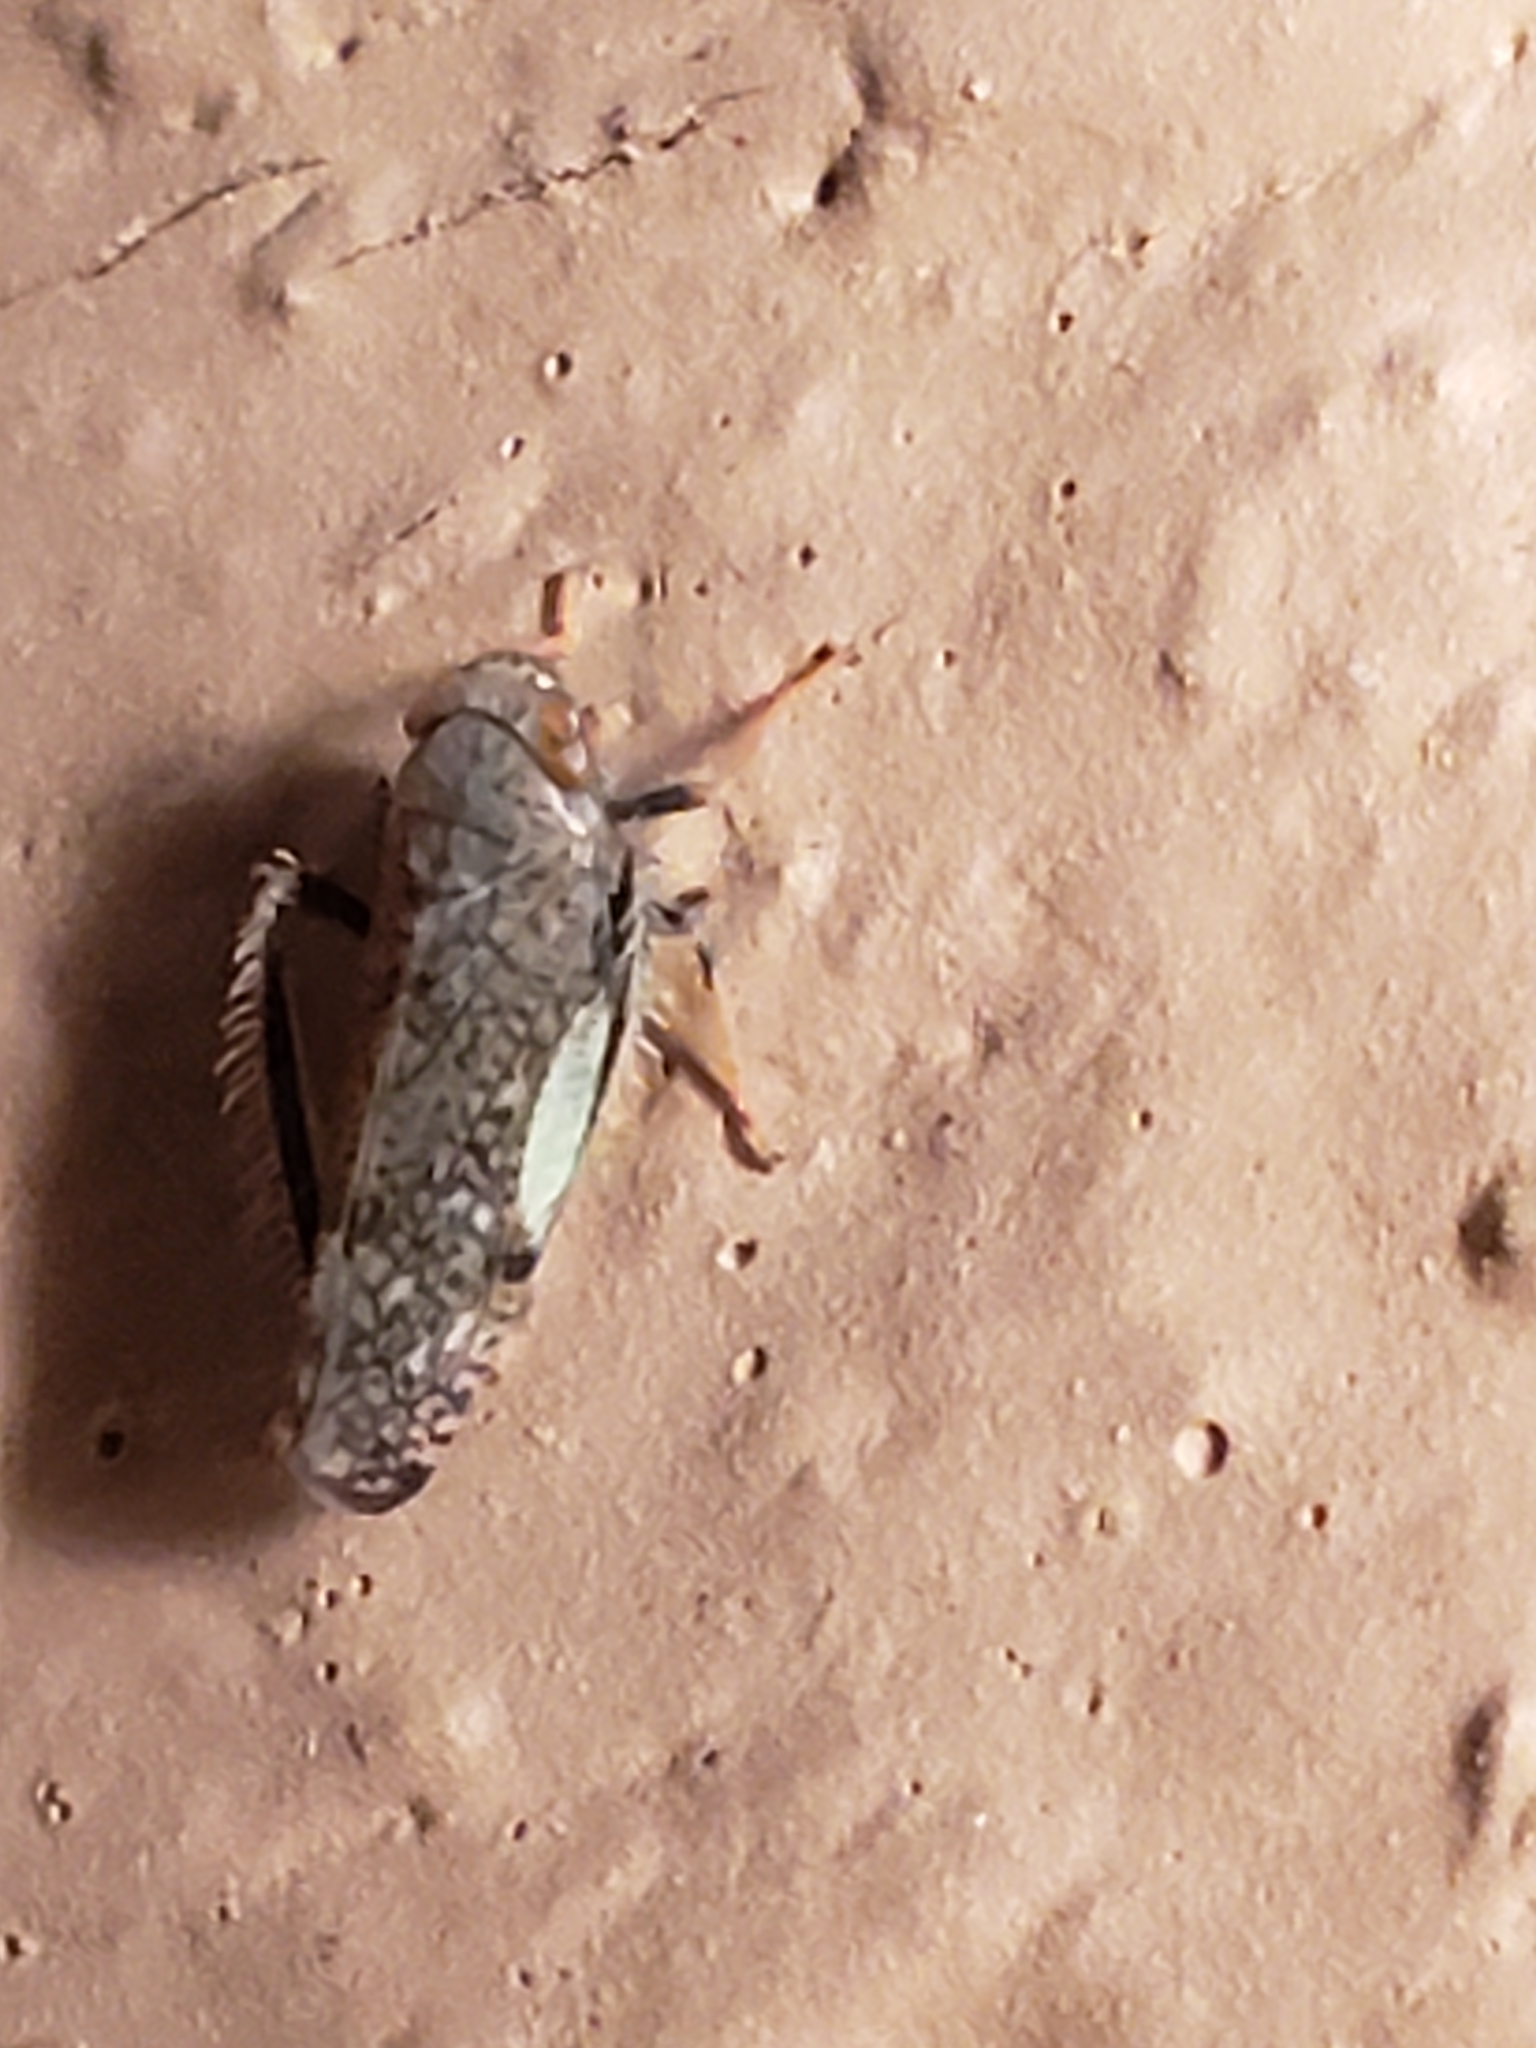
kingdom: Animalia
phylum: Arthropoda
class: Insecta
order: Hemiptera
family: Cicadellidae
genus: Orientus
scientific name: Orientus ishidae
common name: Japanese leafhopper
